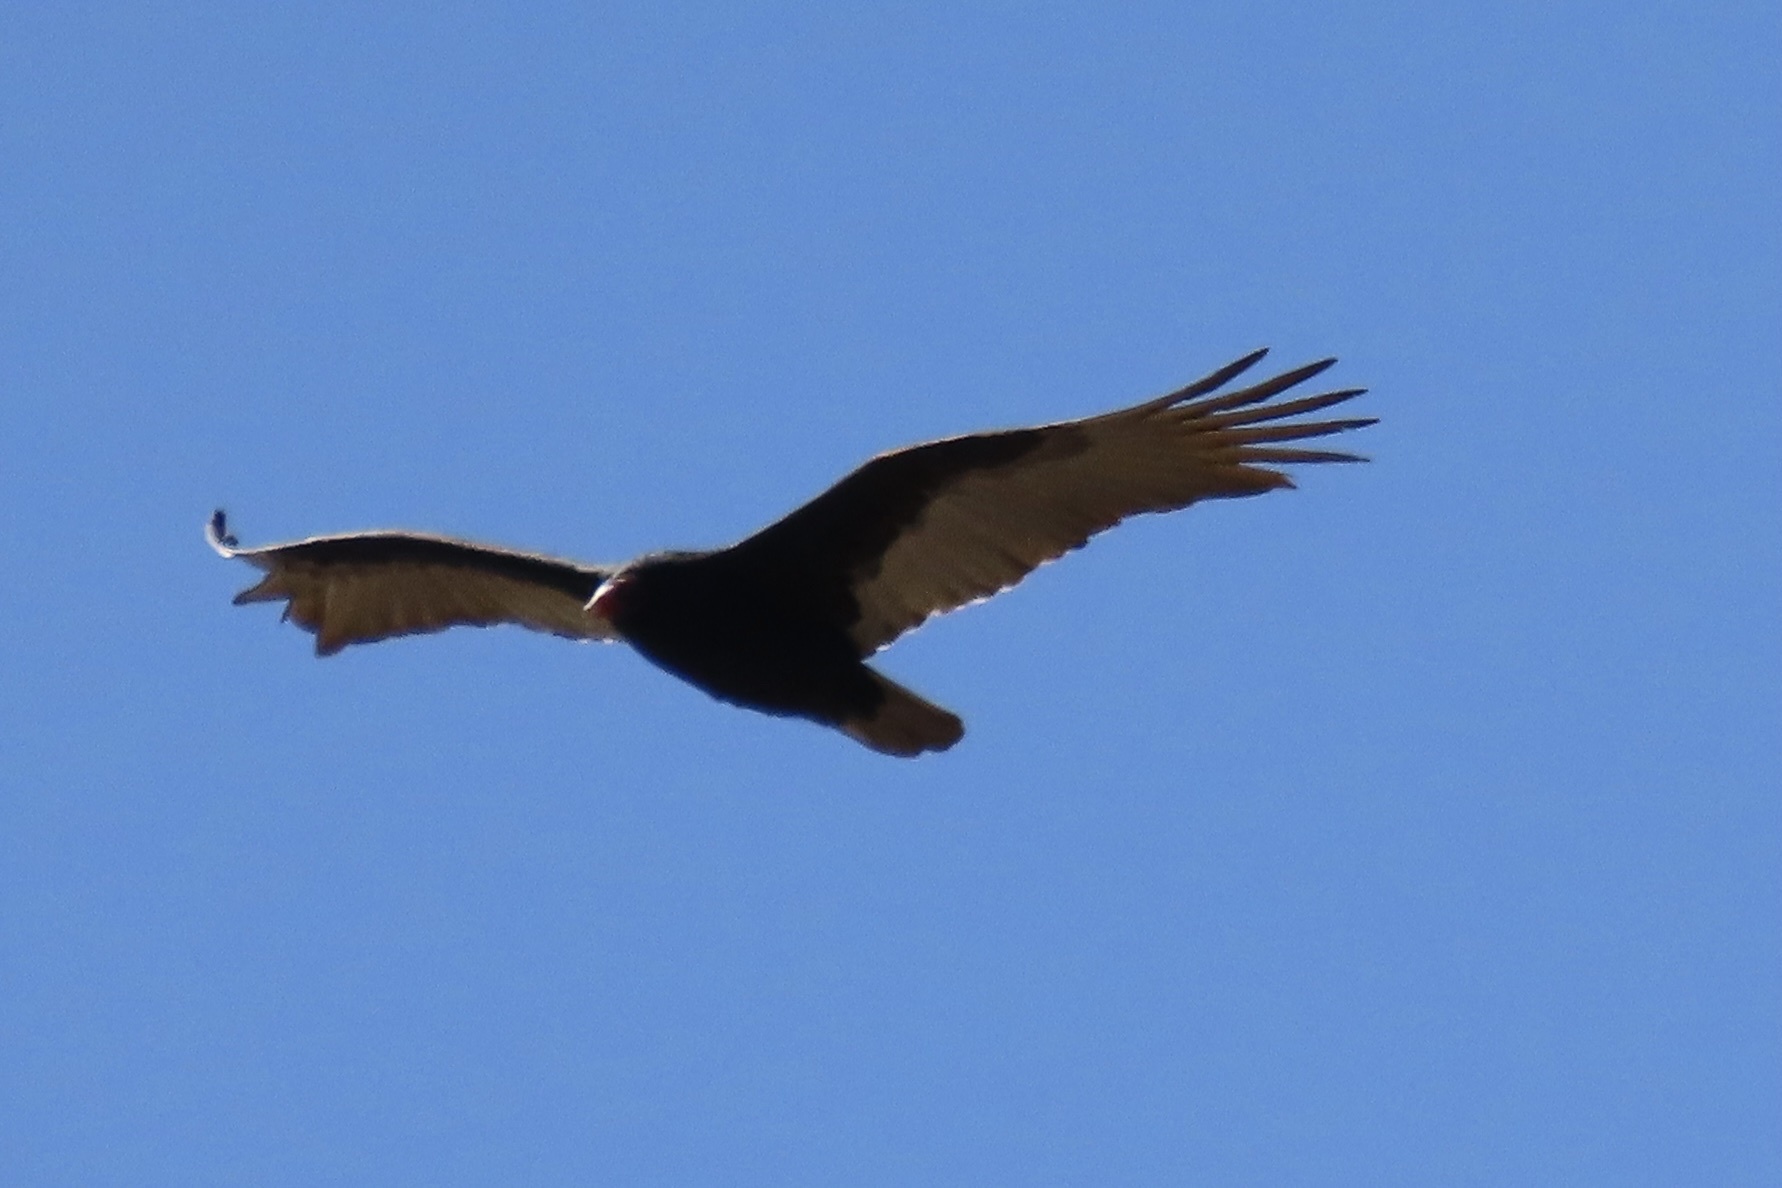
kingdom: Animalia
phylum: Chordata
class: Aves
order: Accipitriformes
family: Cathartidae
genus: Cathartes
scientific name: Cathartes aura
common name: Turkey vulture
